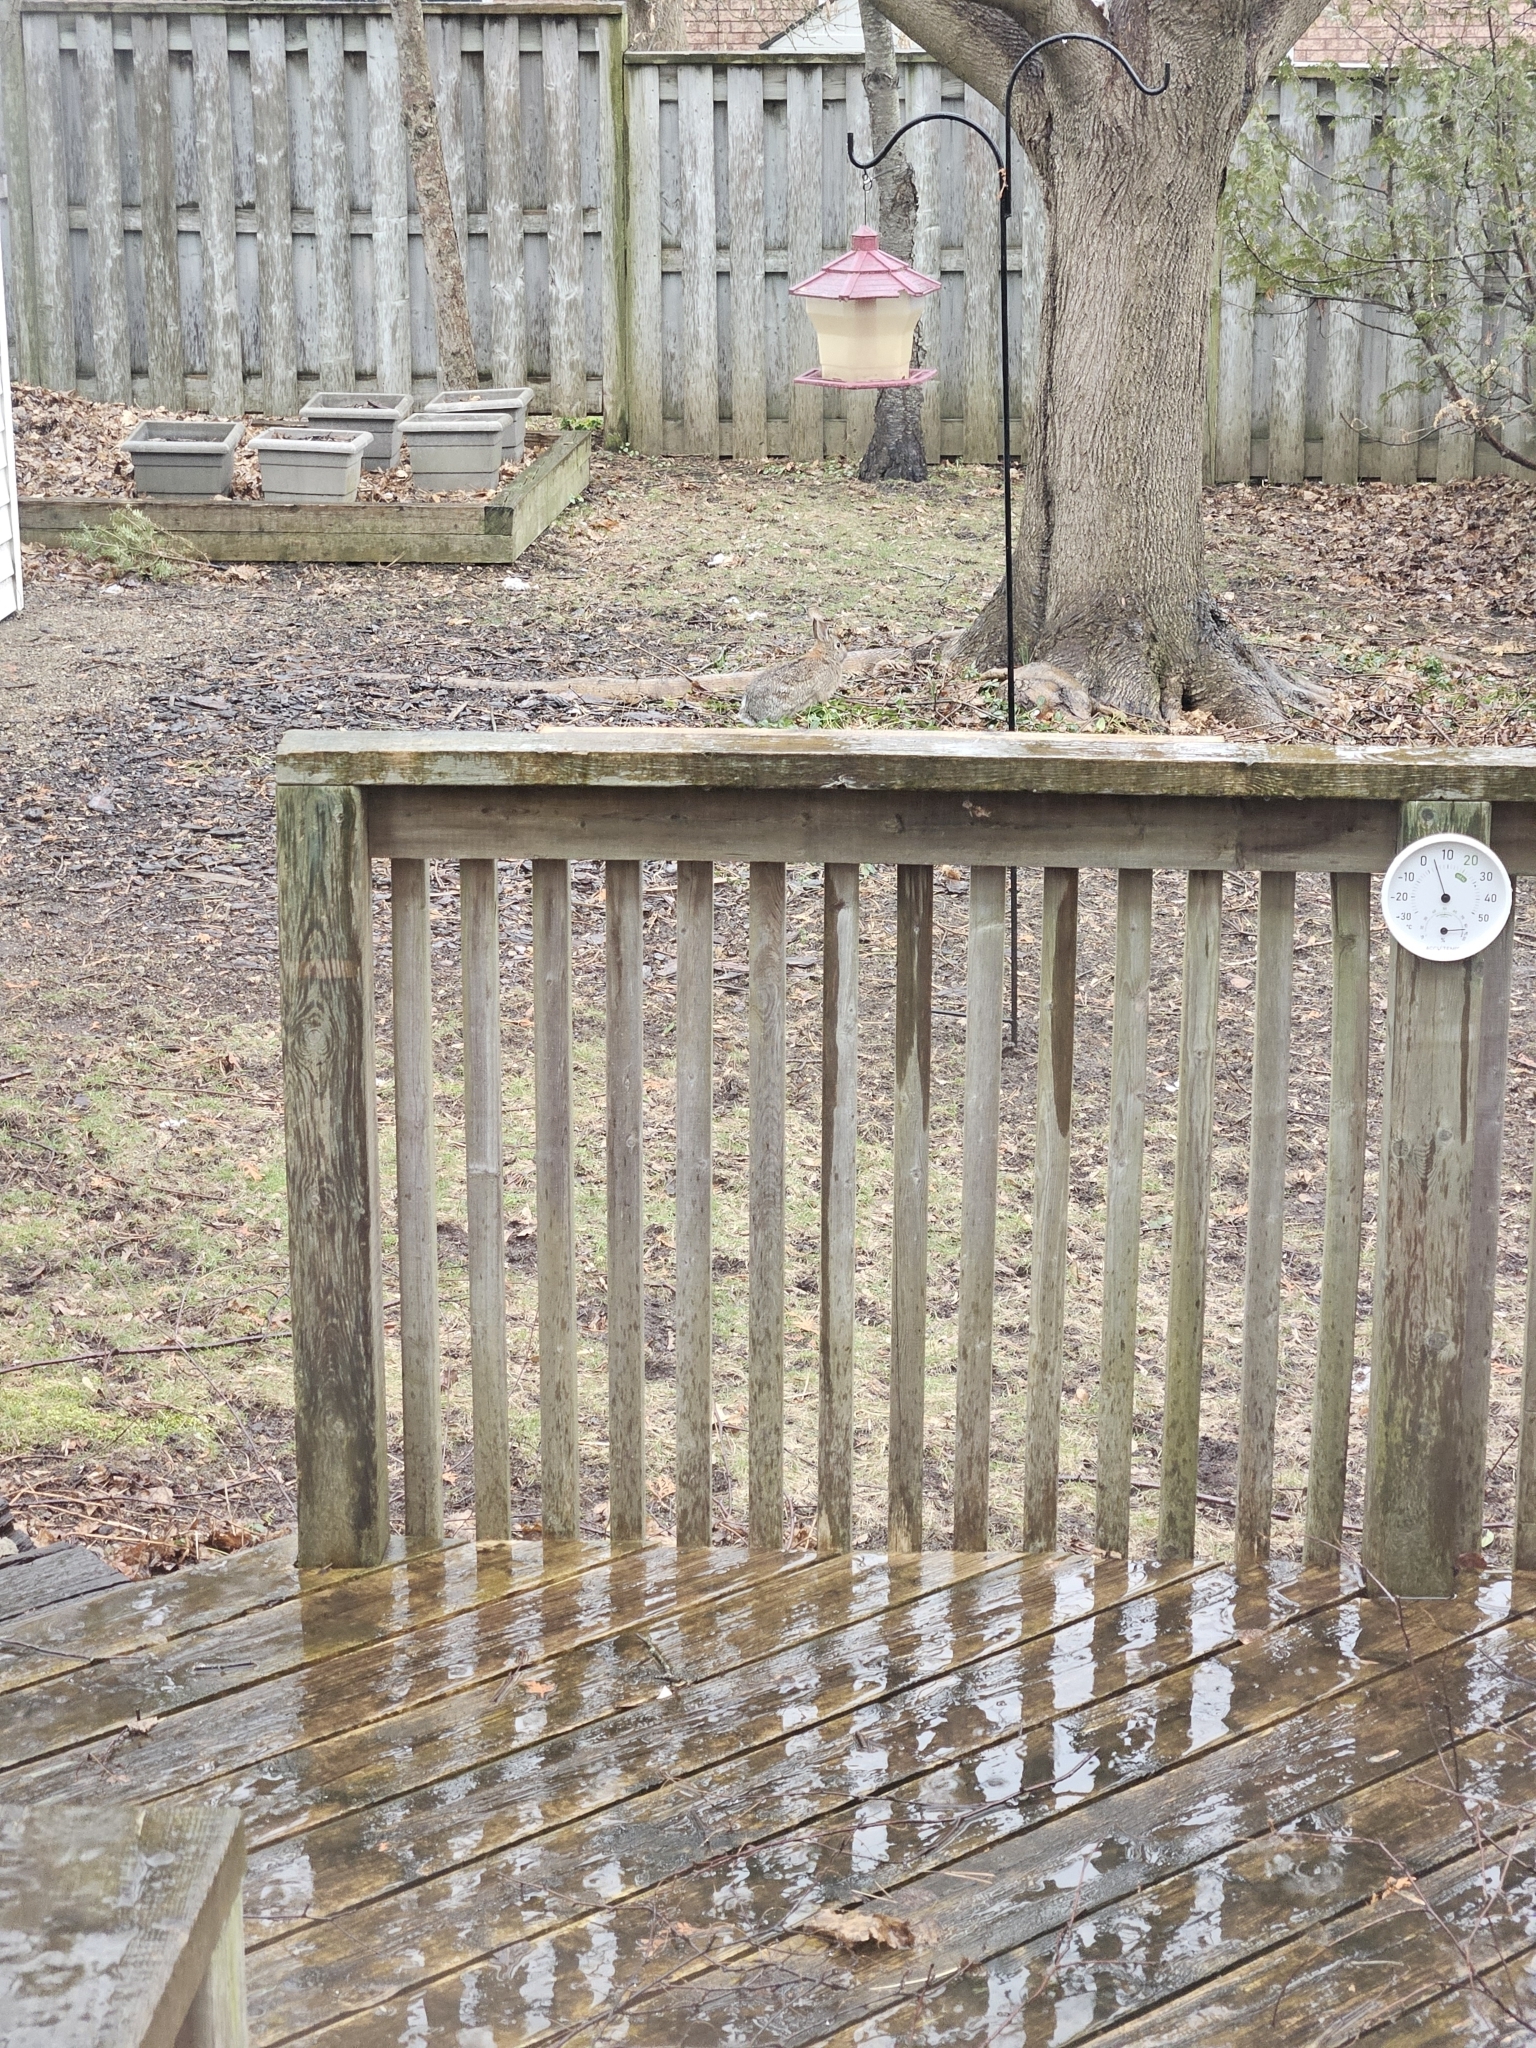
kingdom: Animalia
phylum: Chordata
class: Mammalia
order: Lagomorpha
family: Leporidae
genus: Sylvilagus
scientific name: Sylvilagus floridanus
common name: Eastern cottontail
